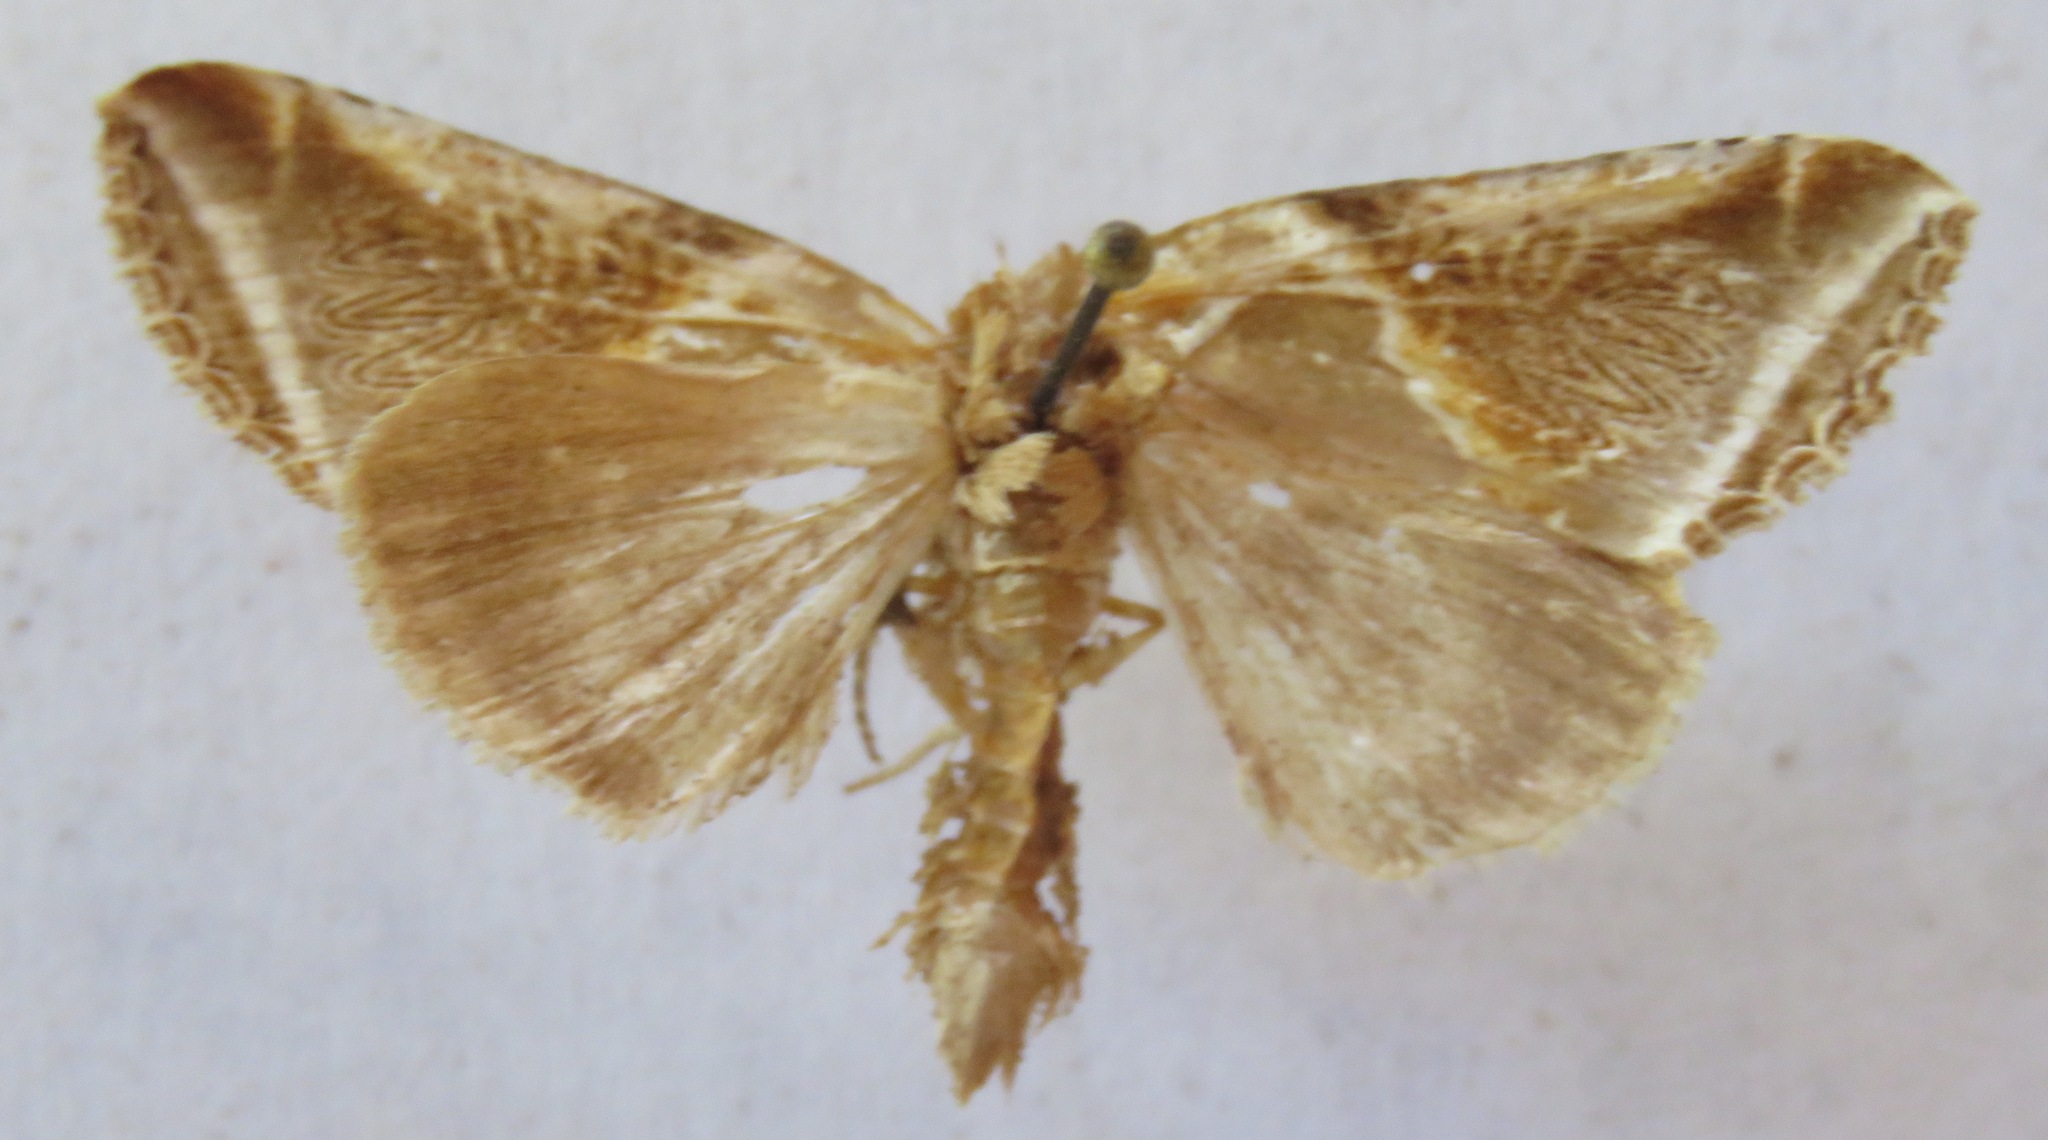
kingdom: Animalia
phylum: Arthropoda
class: Insecta
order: Lepidoptera
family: Drepanidae
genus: Habrosyne
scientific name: Habrosyne pyritoides
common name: Buff arches
